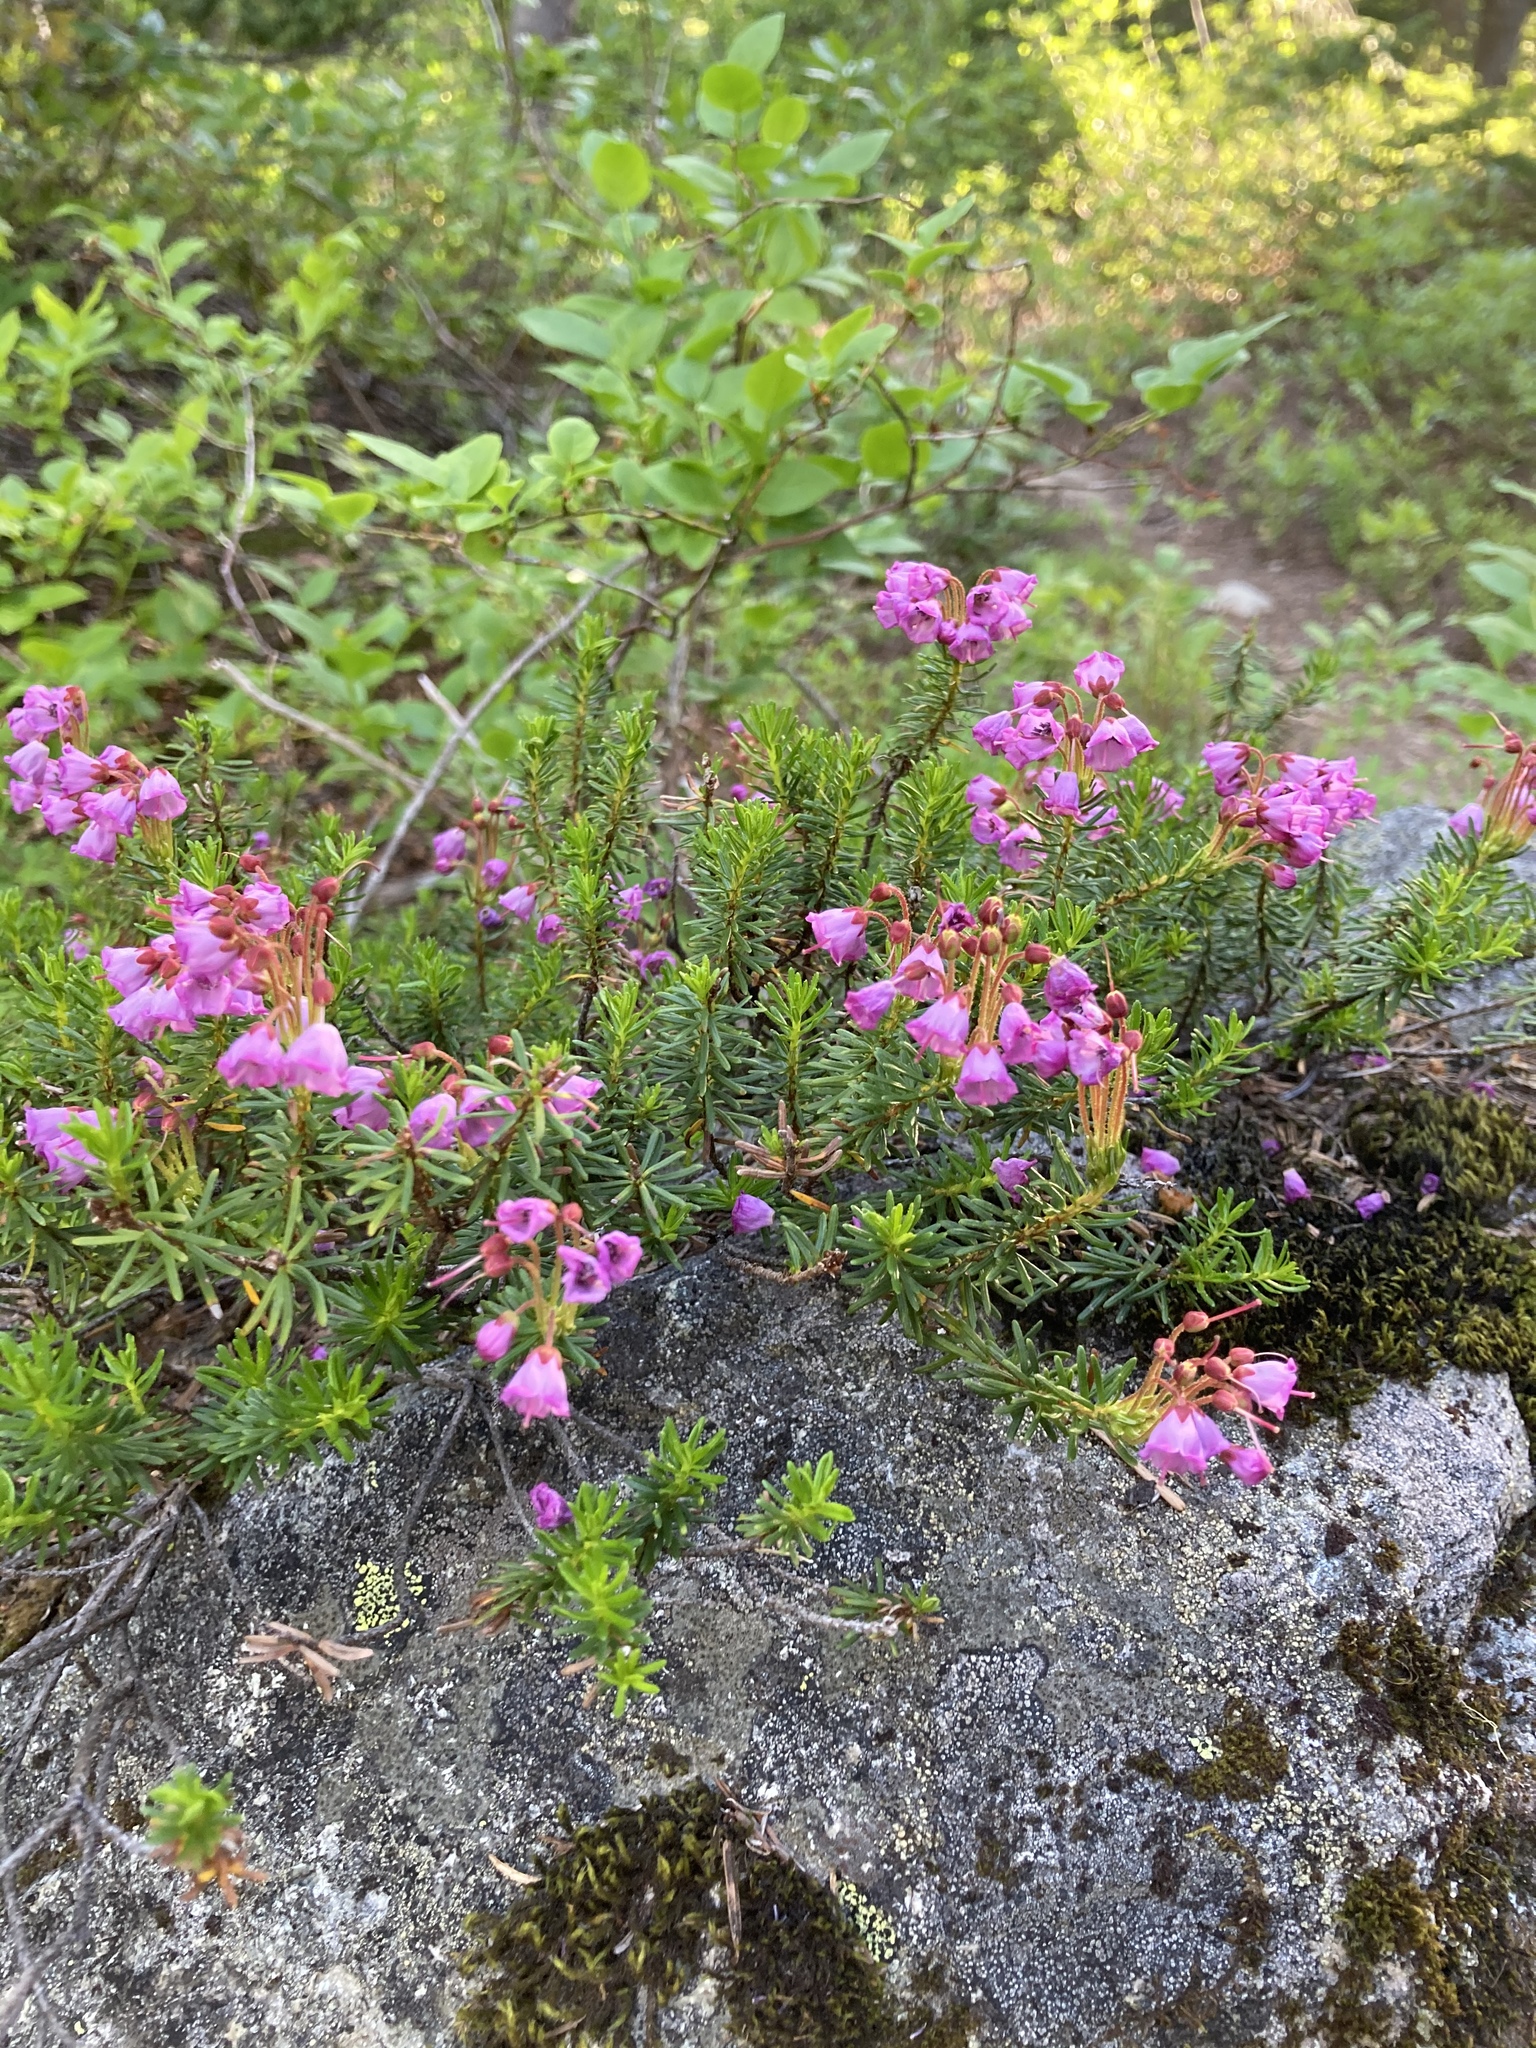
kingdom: Plantae
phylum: Tracheophyta
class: Magnoliopsida
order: Ericales
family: Ericaceae
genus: Phyllodoce
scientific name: Phyllodoce empetriformis
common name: Pink mountain heather
